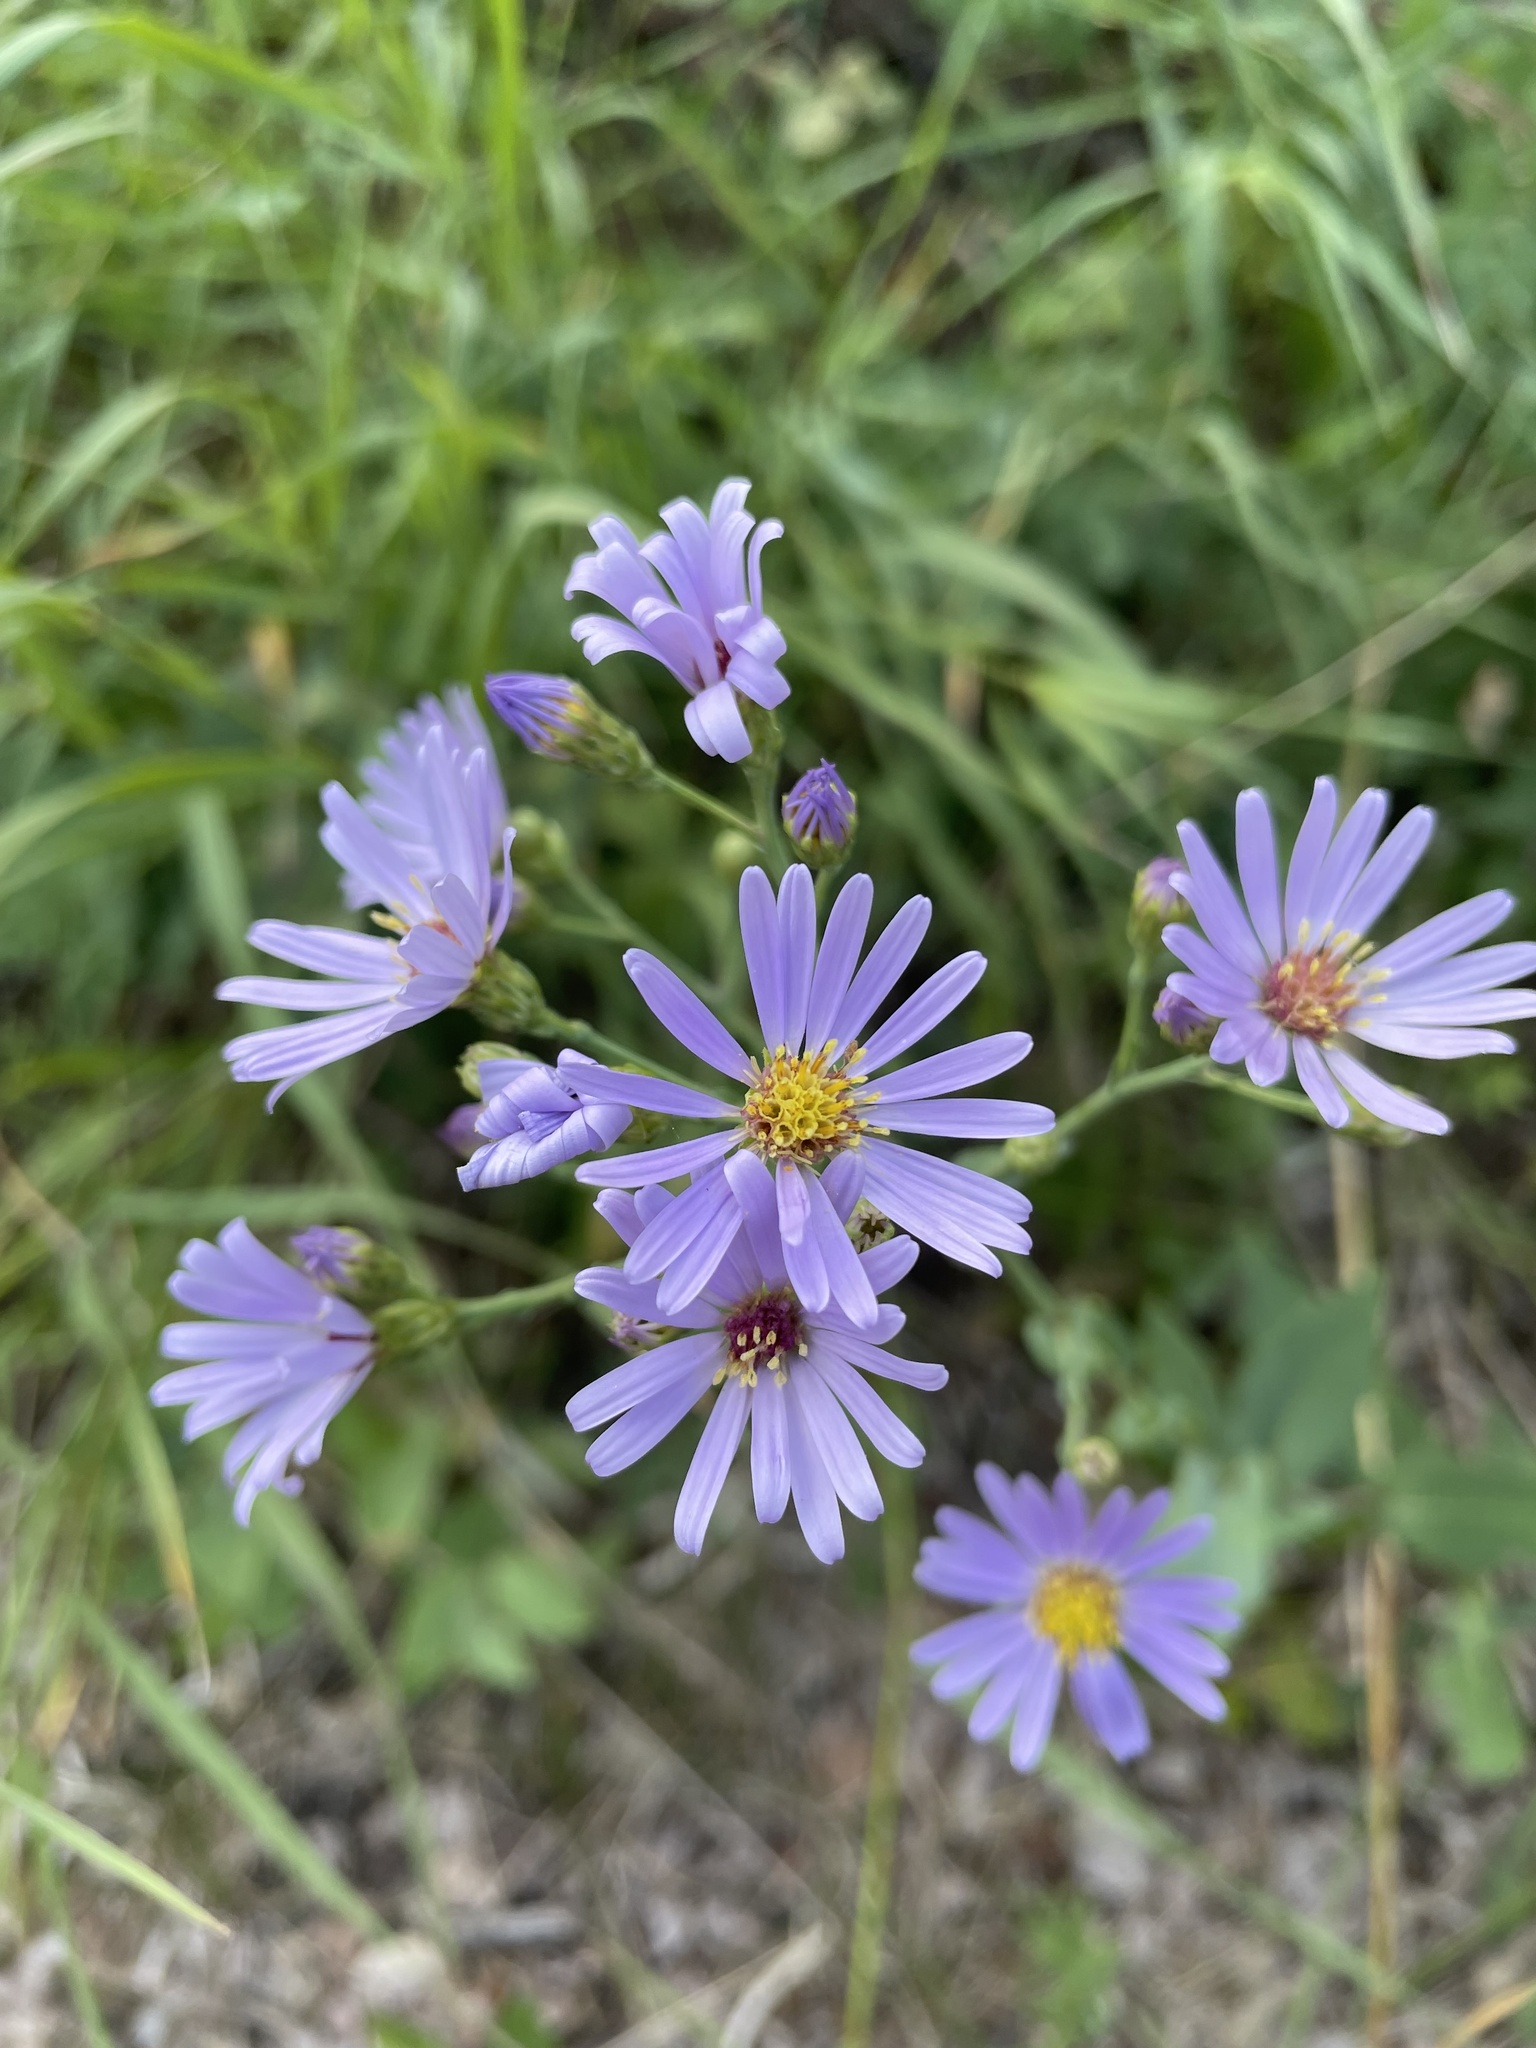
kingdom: Plantae
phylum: Tracheophyta
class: Magnoliopsida
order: Asterales
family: Asteraceae
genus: Symphyotrichum
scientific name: Symphyotrichum laeve
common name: Glaucous aster
